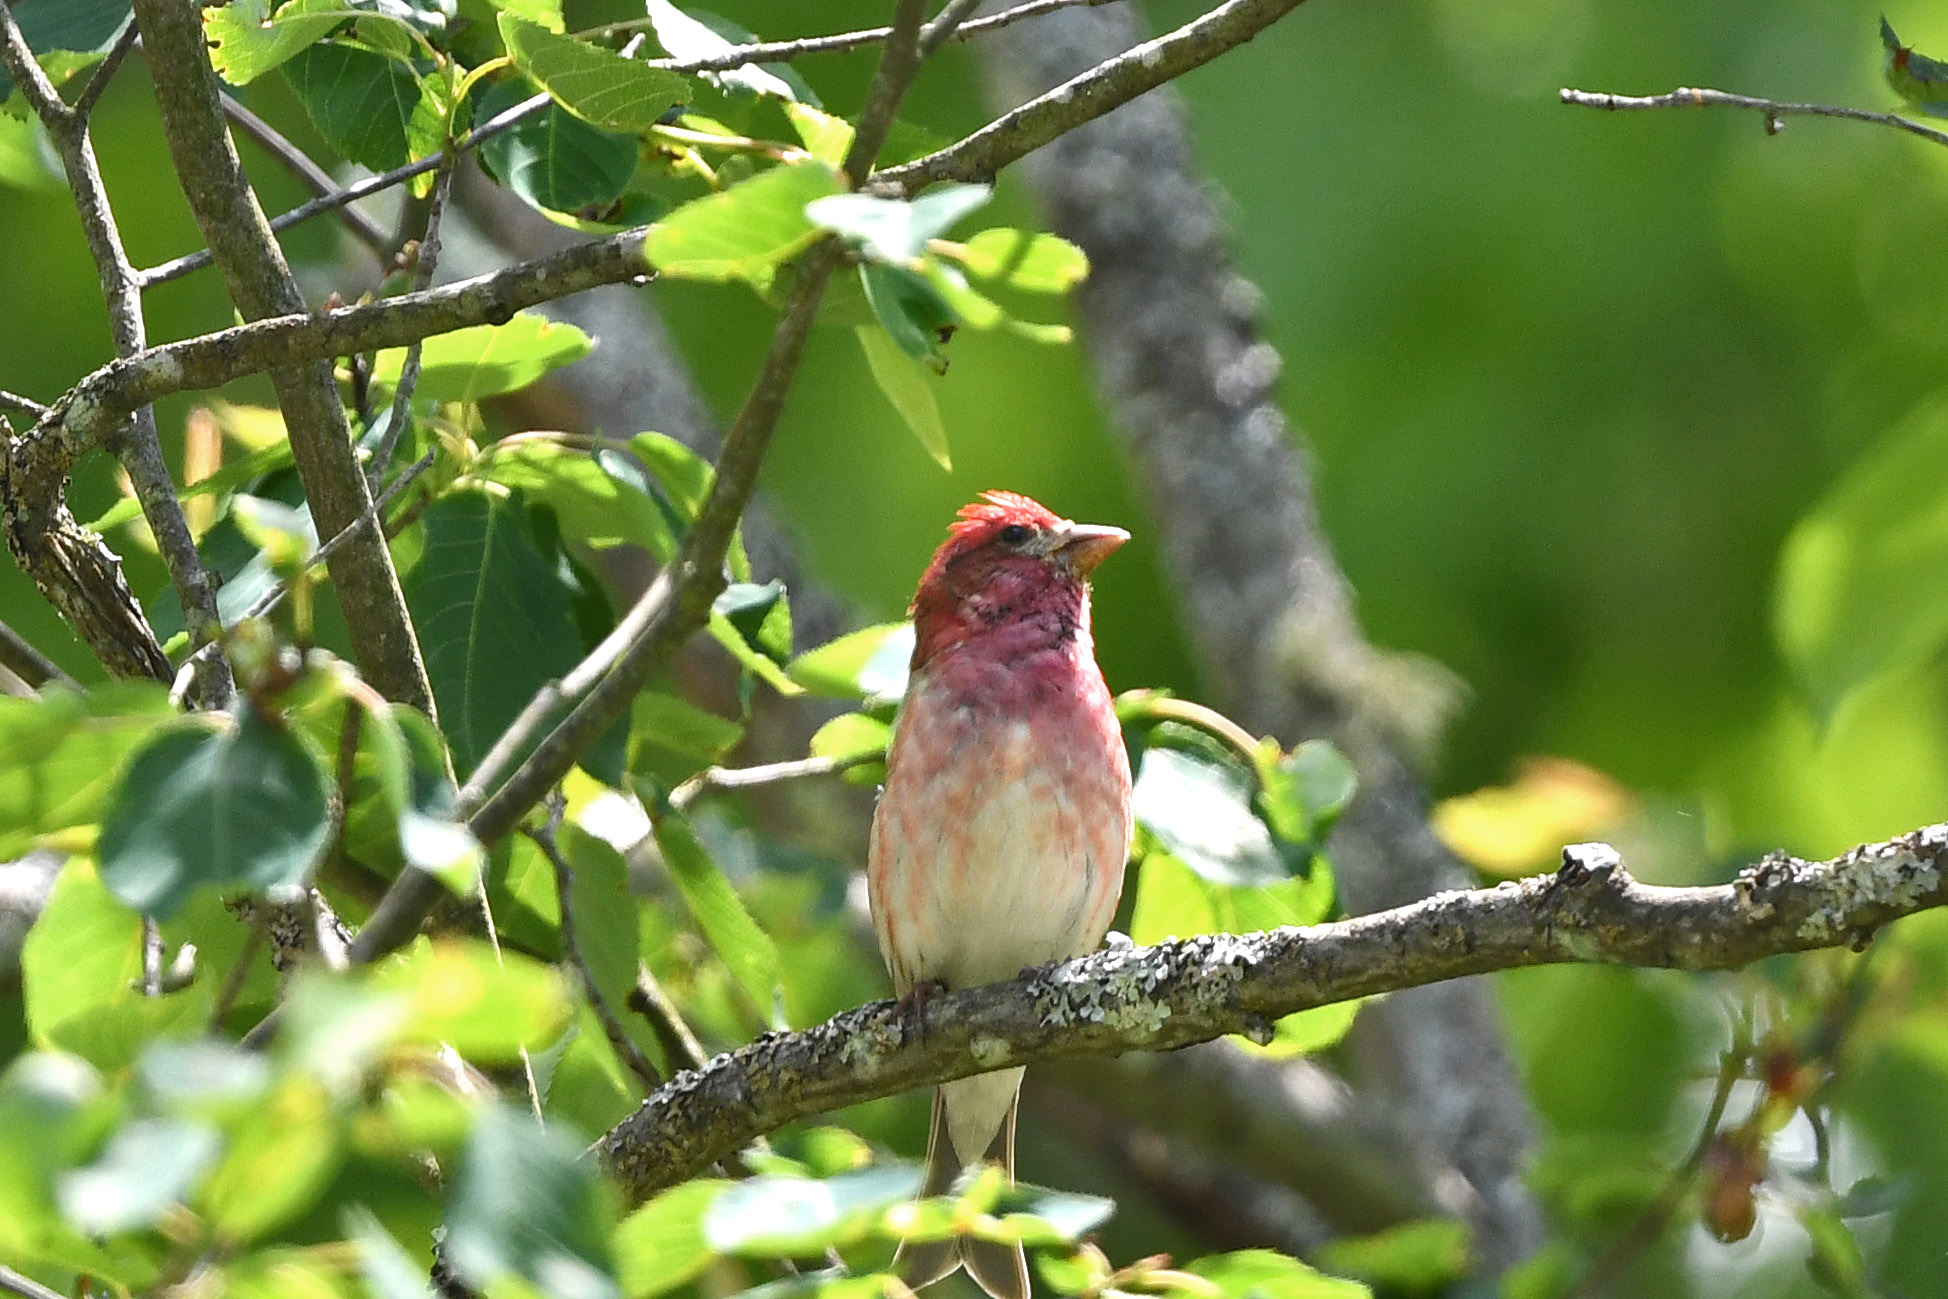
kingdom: Animalia
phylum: Chordata
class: Aves
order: Passeriformes
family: Fringillidae
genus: Haemorhous
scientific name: Haemorhous purpureus
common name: Purple finch
